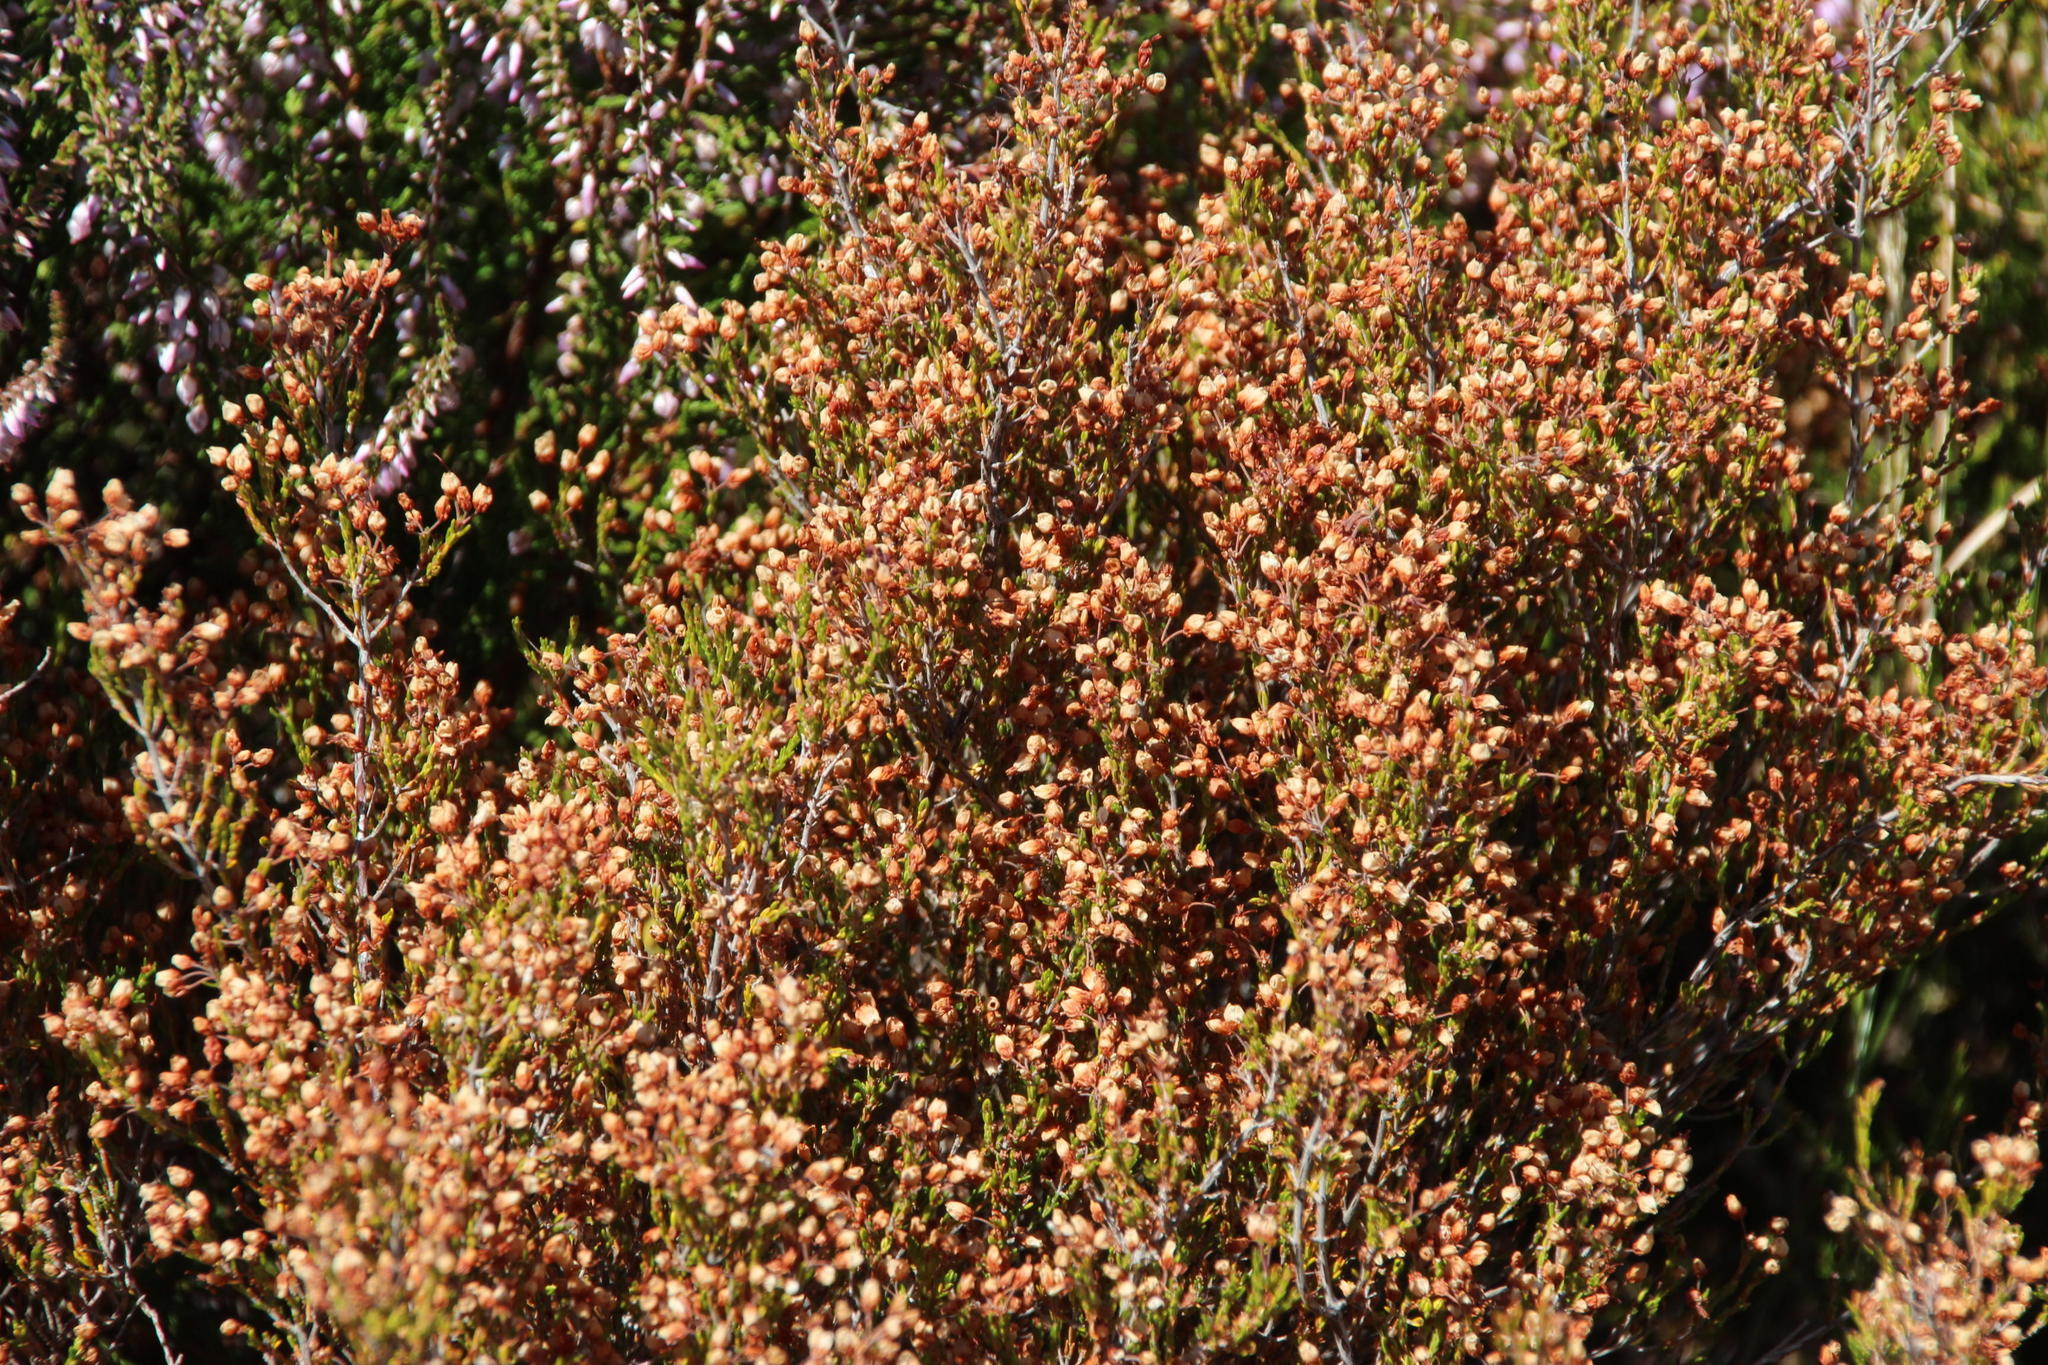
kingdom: Plantae
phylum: Tracheophyta
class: Magnoliopsida
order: Ericales
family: Ericaceae
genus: Erica
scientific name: Erica umbellata
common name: Dwarf spanish heath
